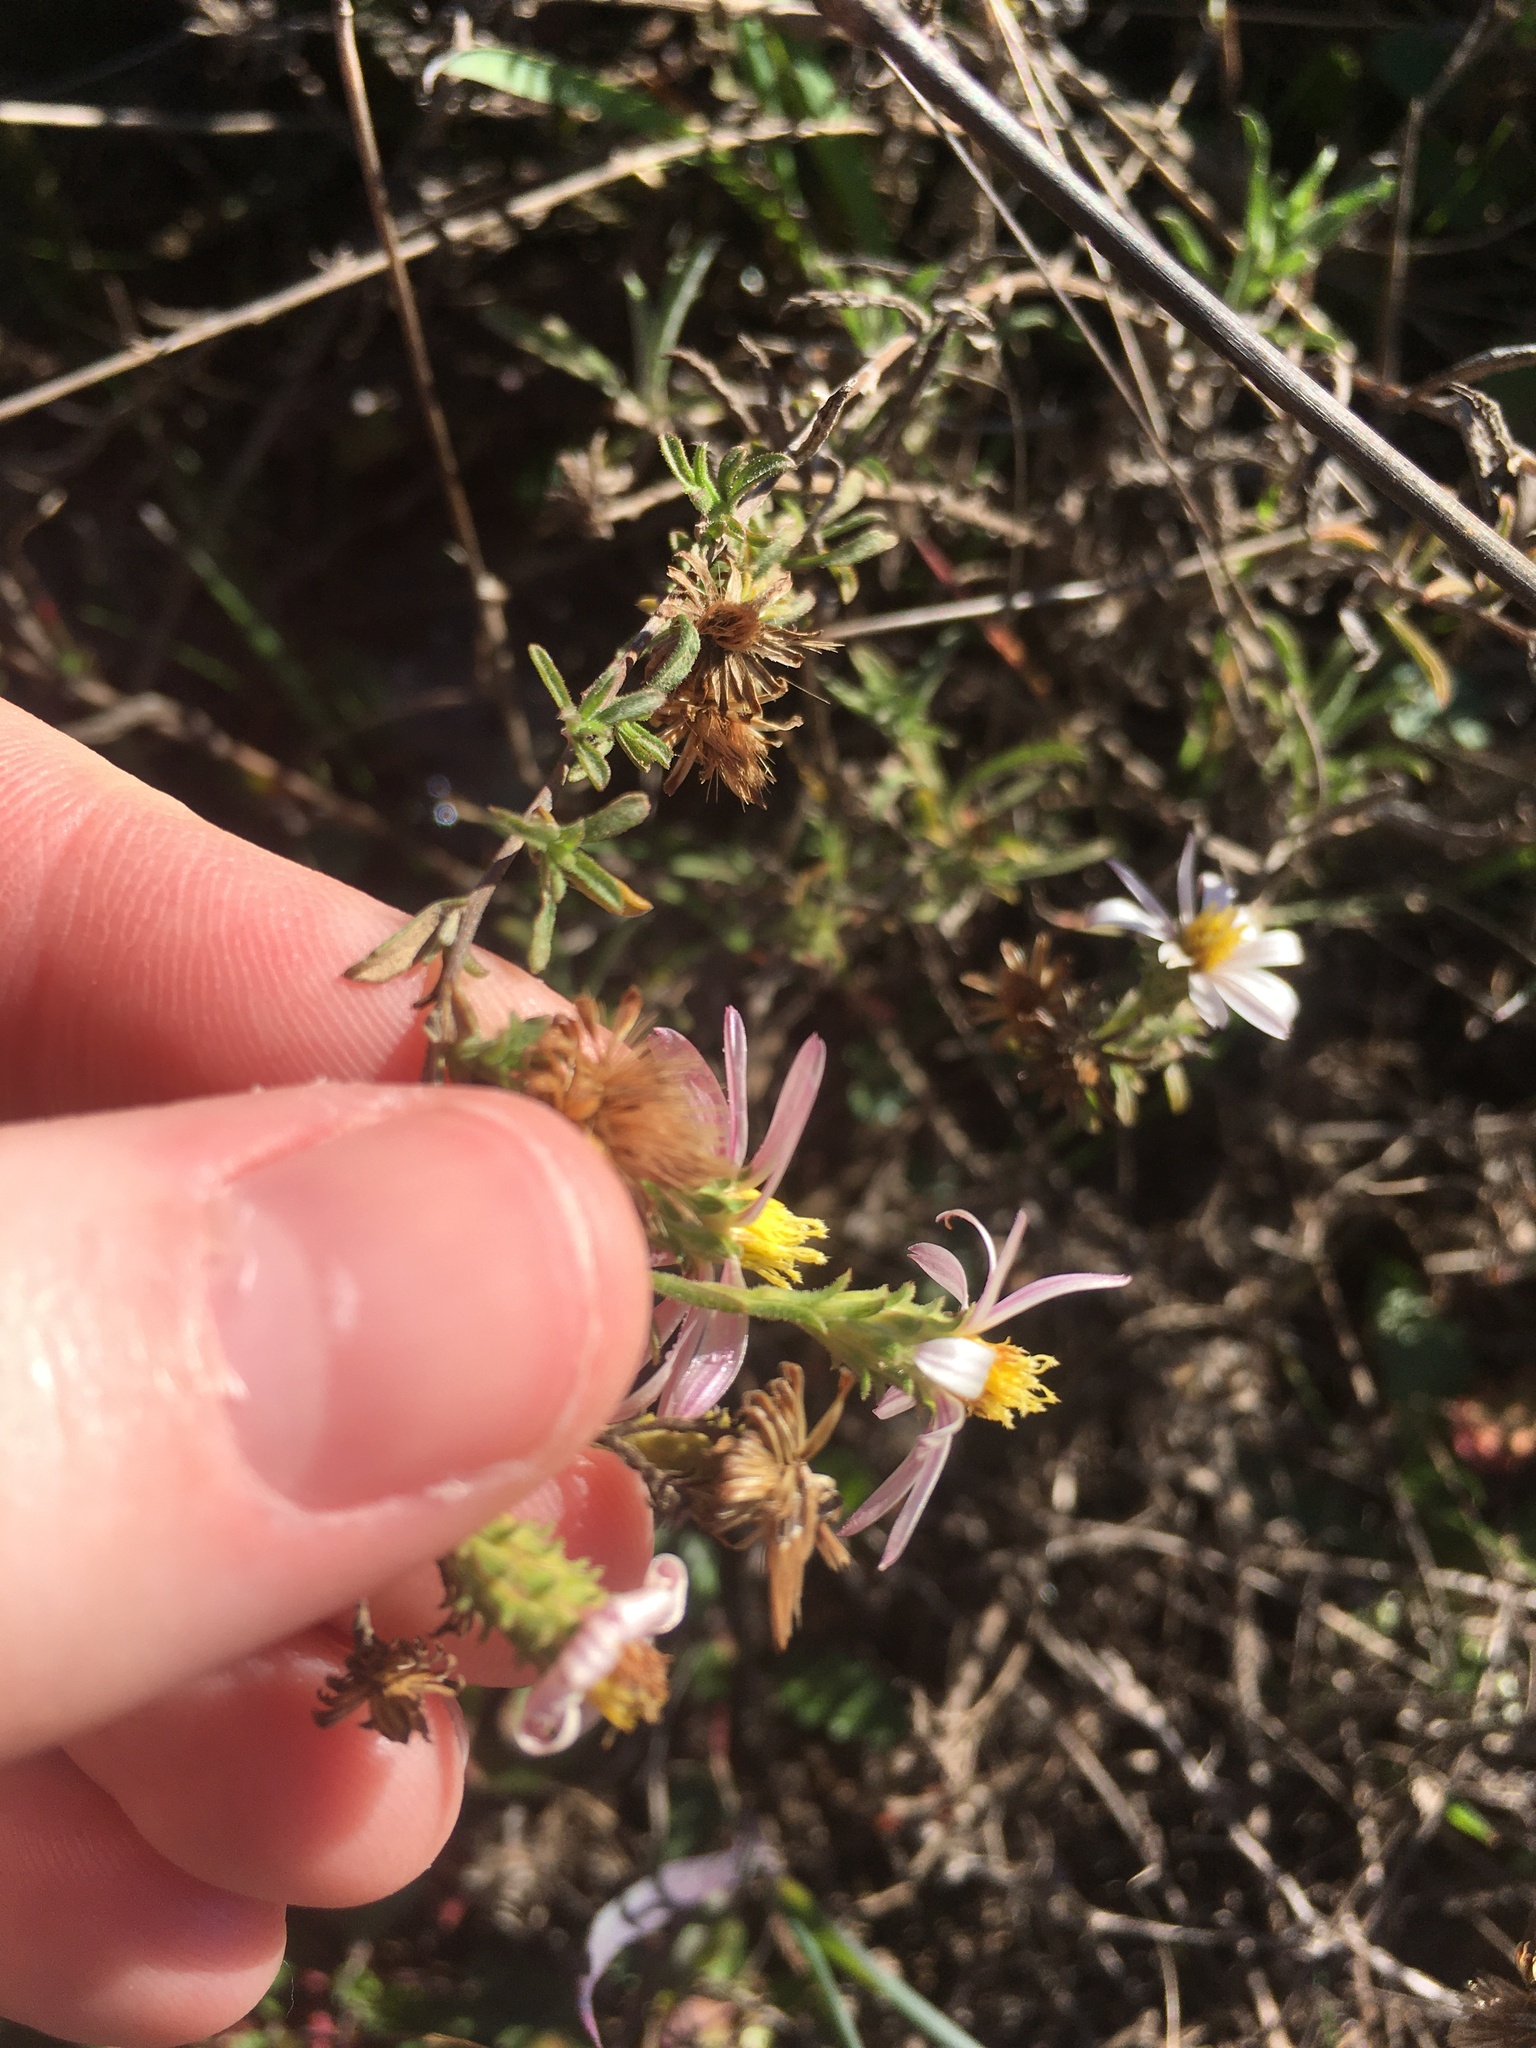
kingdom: Plantae
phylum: Tracheophyta
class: Magnoliopsida
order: Asterales
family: Asteraceae
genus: Corethrogyne
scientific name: Corethrogyne filaginifolia
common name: Sand-aster
